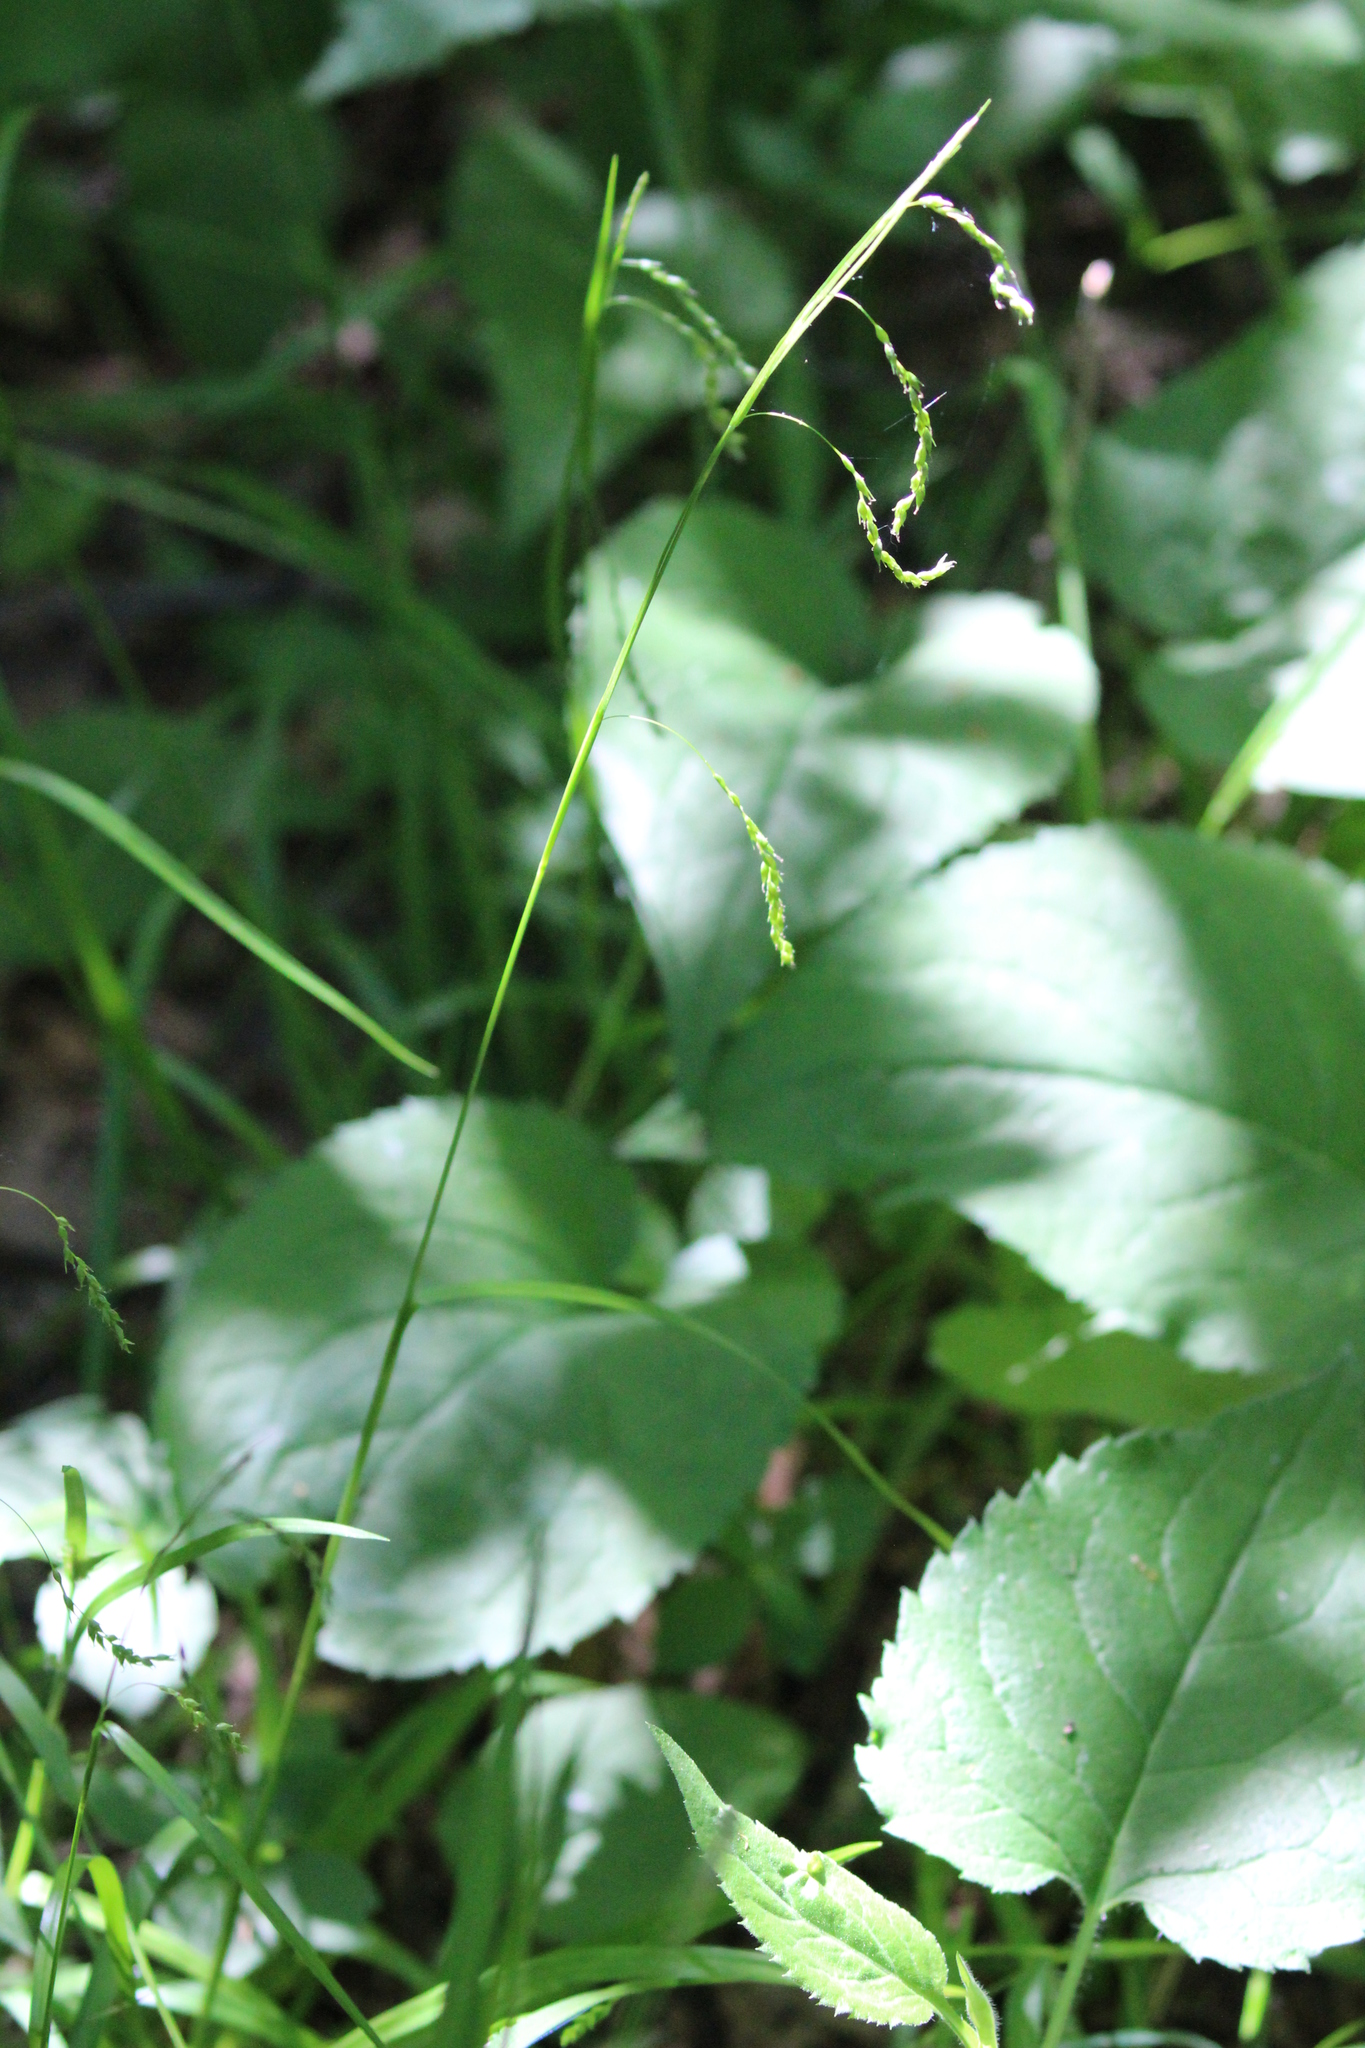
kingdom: Plantae
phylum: Tracheophyta
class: Liliopsida
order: Poales
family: Cyperaceae
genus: Carex
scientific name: Carex arctata
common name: Black sedge
